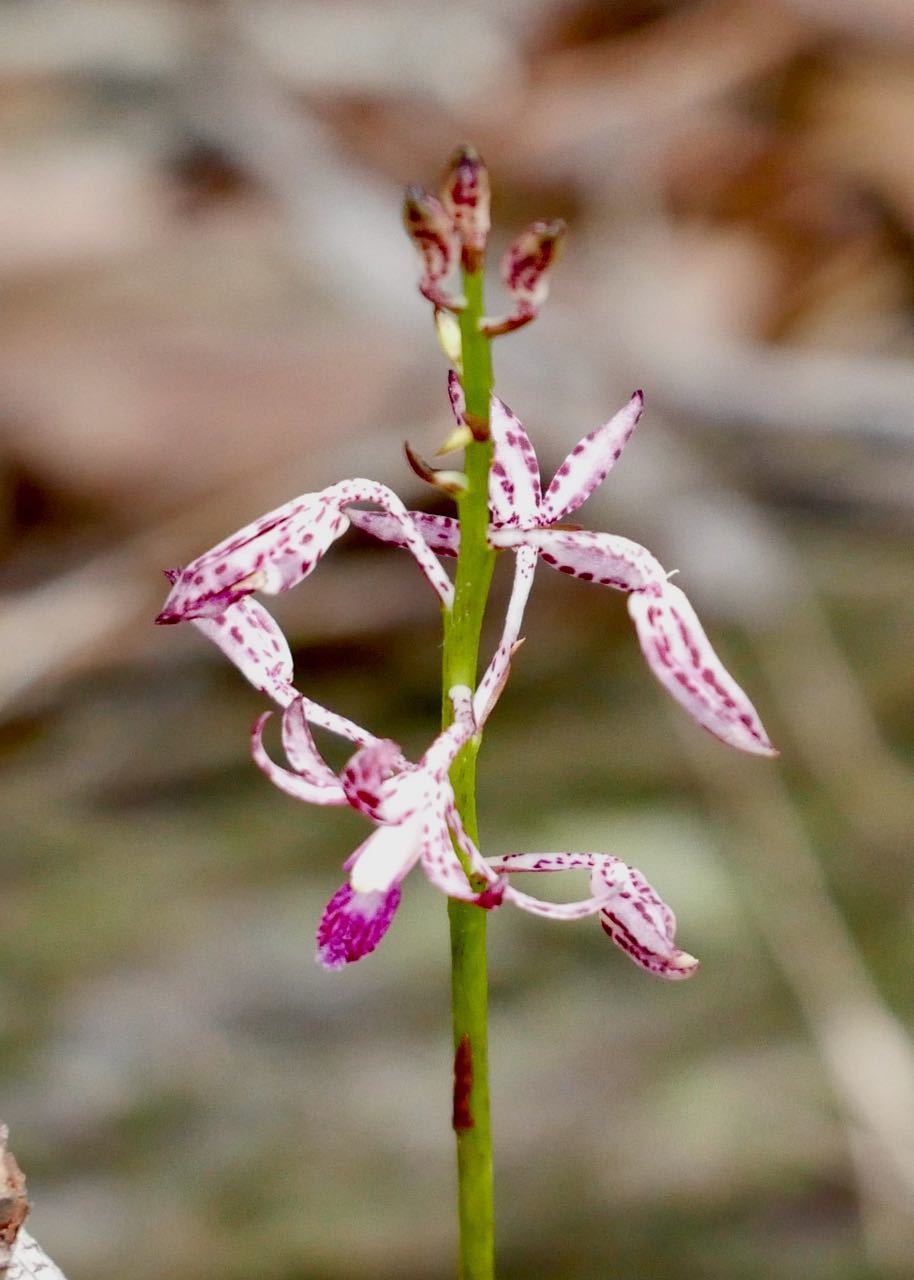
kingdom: Plantae
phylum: Tracheophyta
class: Liliopsida
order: Asparagales
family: Orchidaceae
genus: Dipodium
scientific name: Dipodium variegatum
